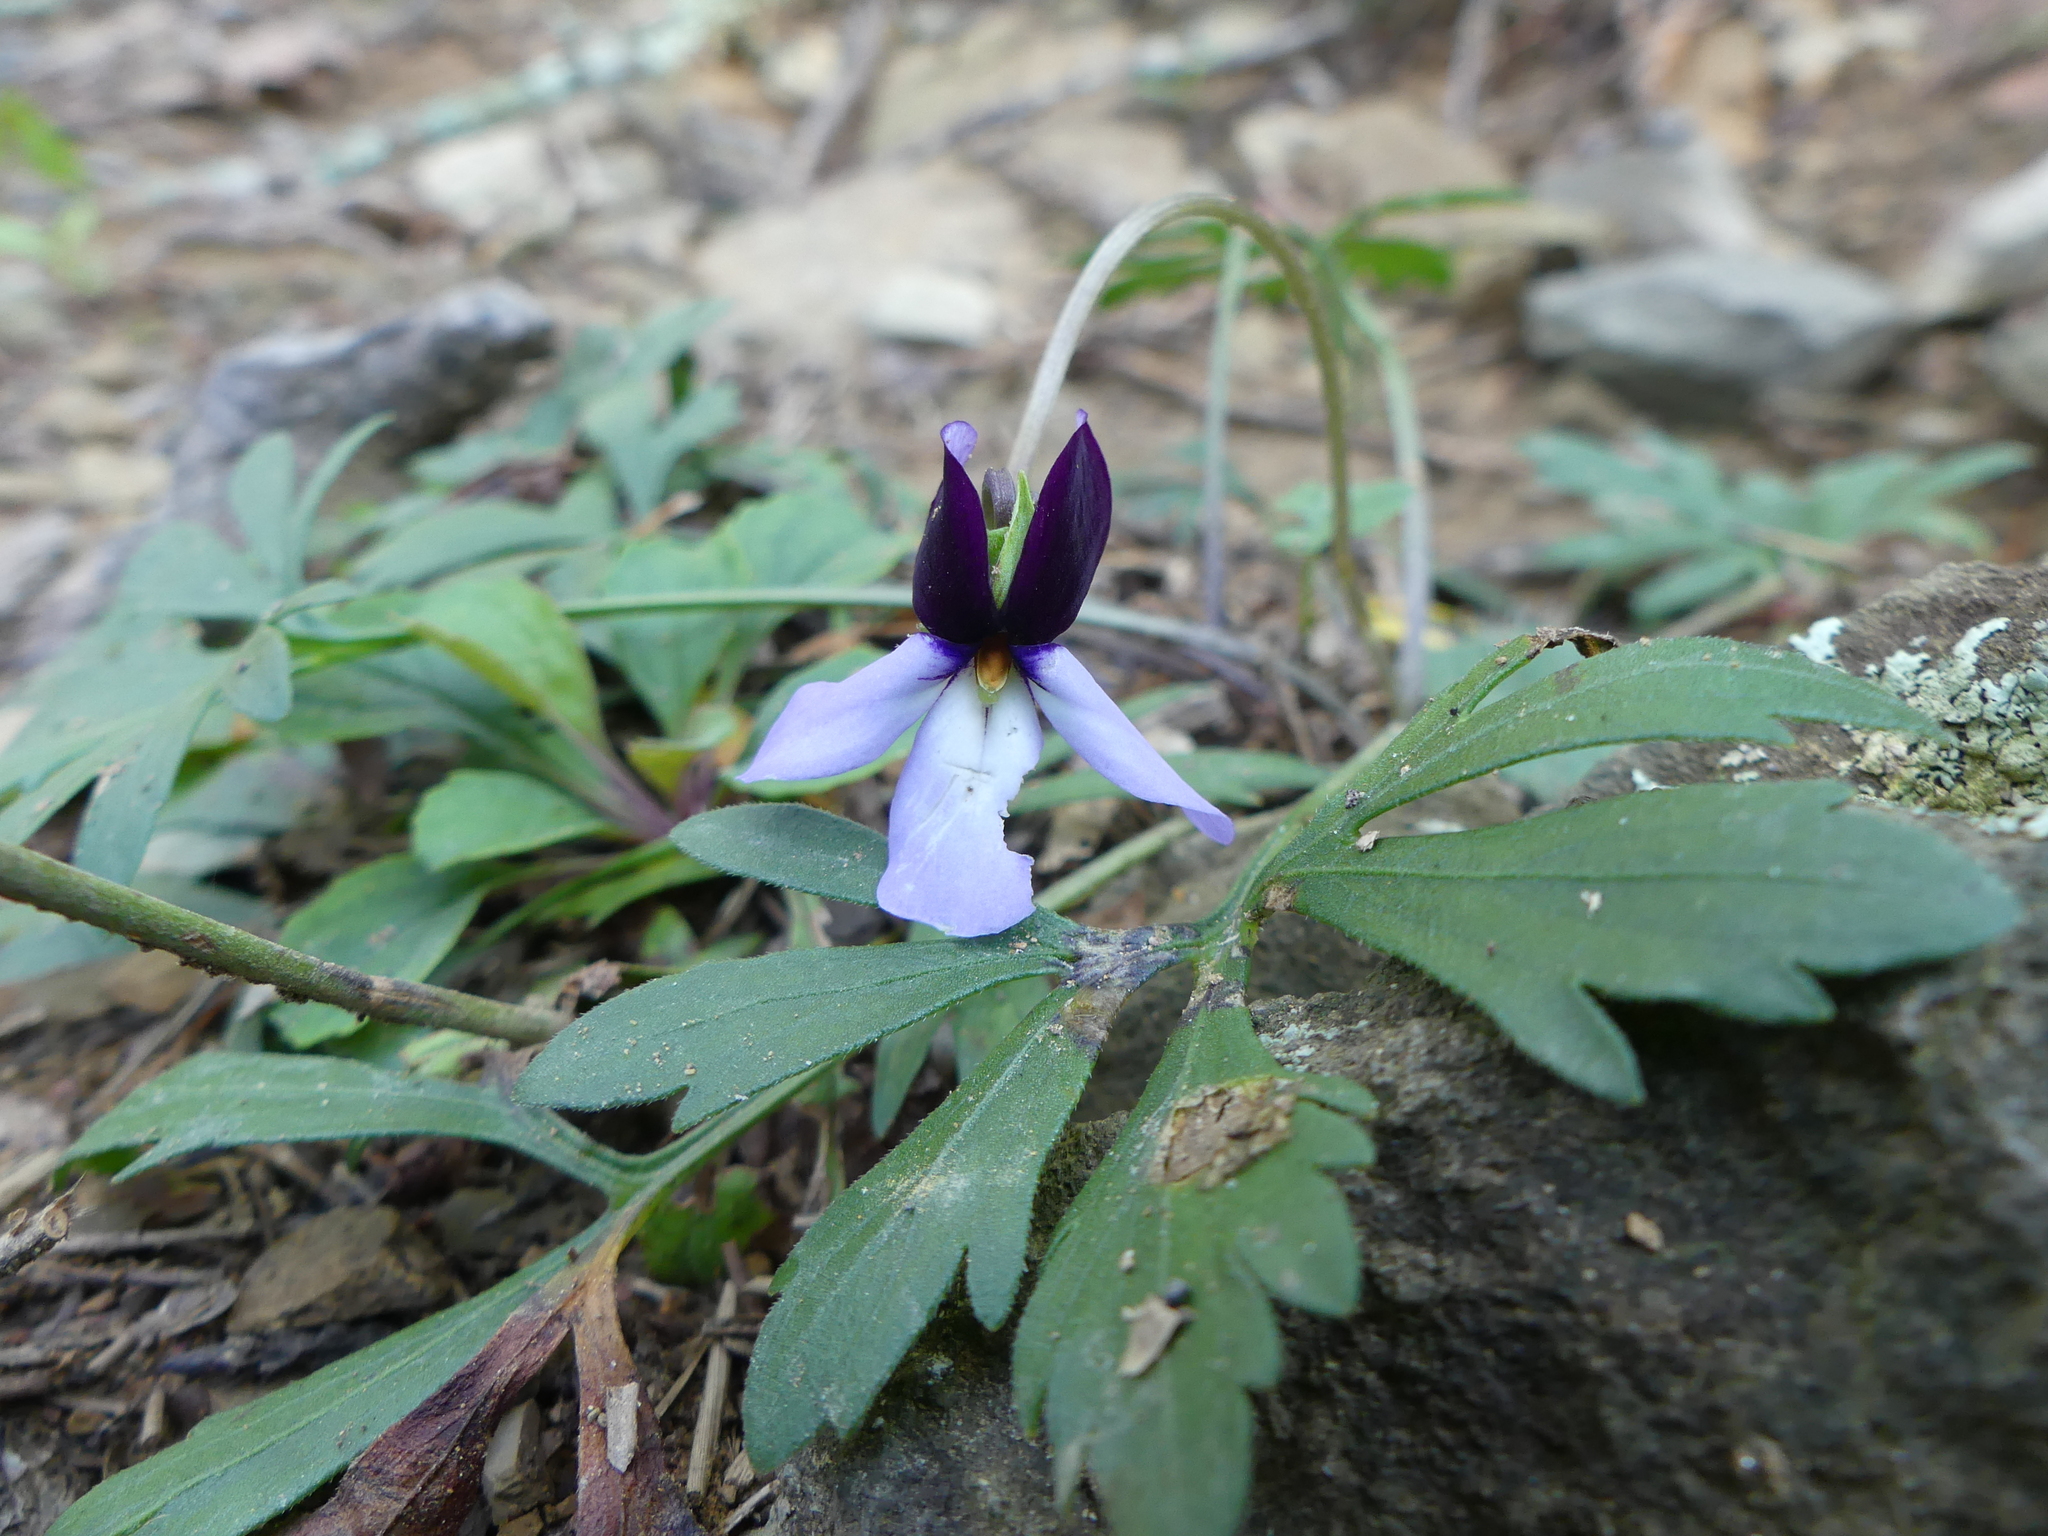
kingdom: Plantae
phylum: Tracheophyta
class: Magnoliopsida
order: Malpighiales
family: Violaceae
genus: Viola
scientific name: Viola pedata
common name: Pansy violet
